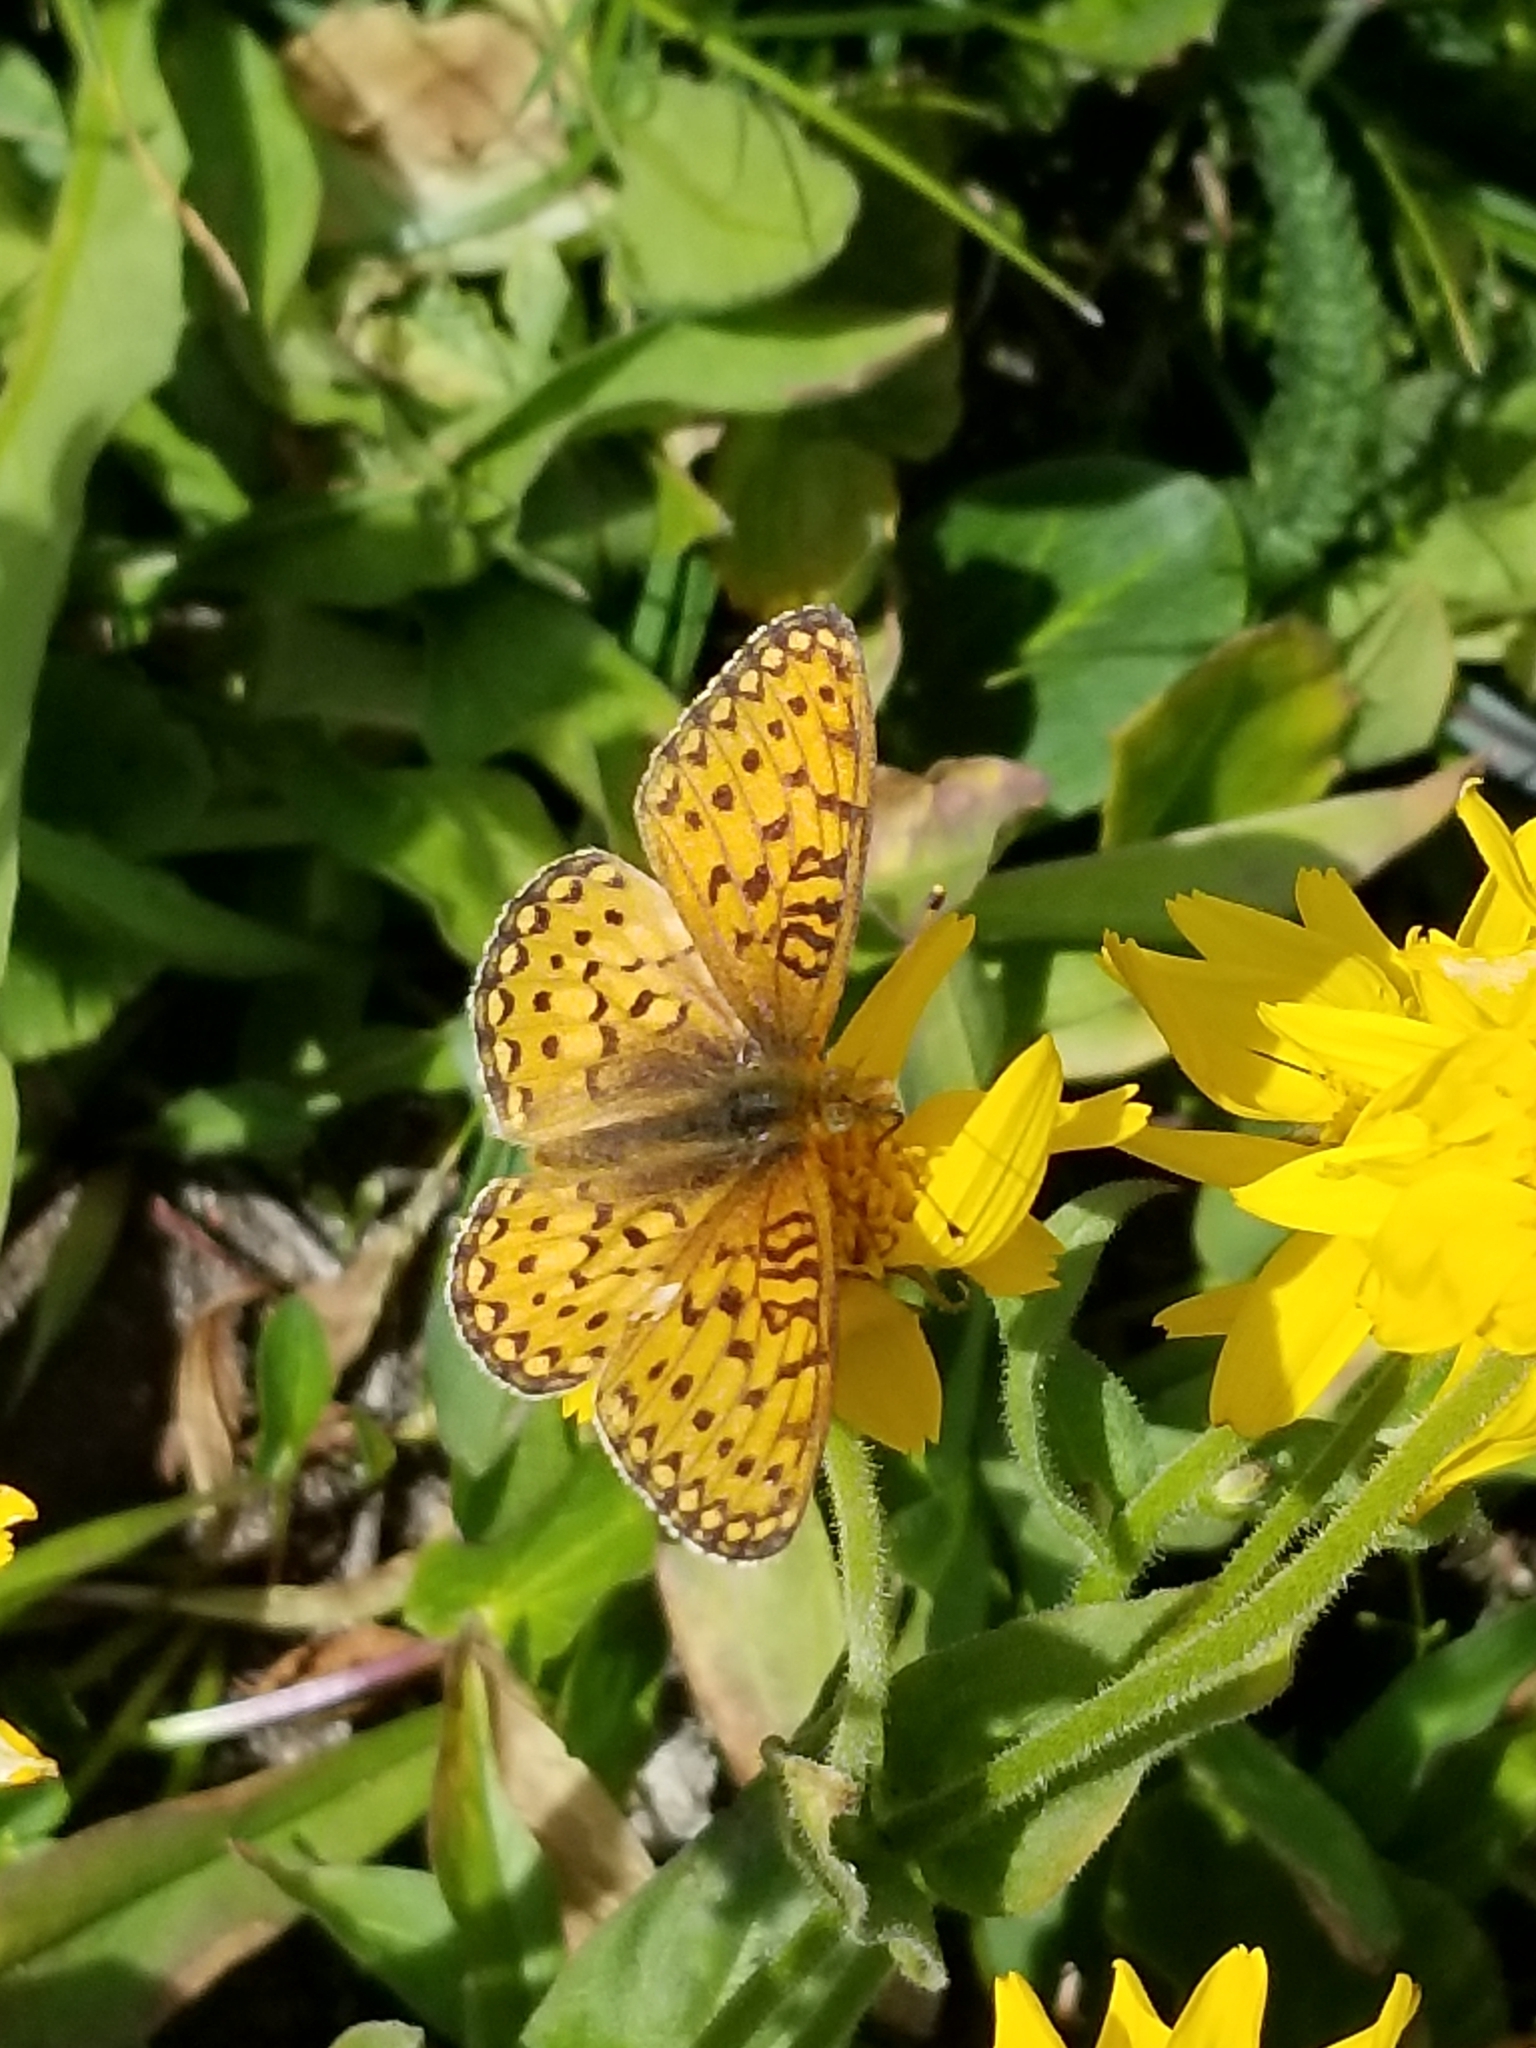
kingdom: Animalia
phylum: Arthropoda
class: Insecta
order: Lepidoptera
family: Nymphalidae
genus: Speyeria
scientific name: Speyeria mormonia
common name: Mormon fritillary
